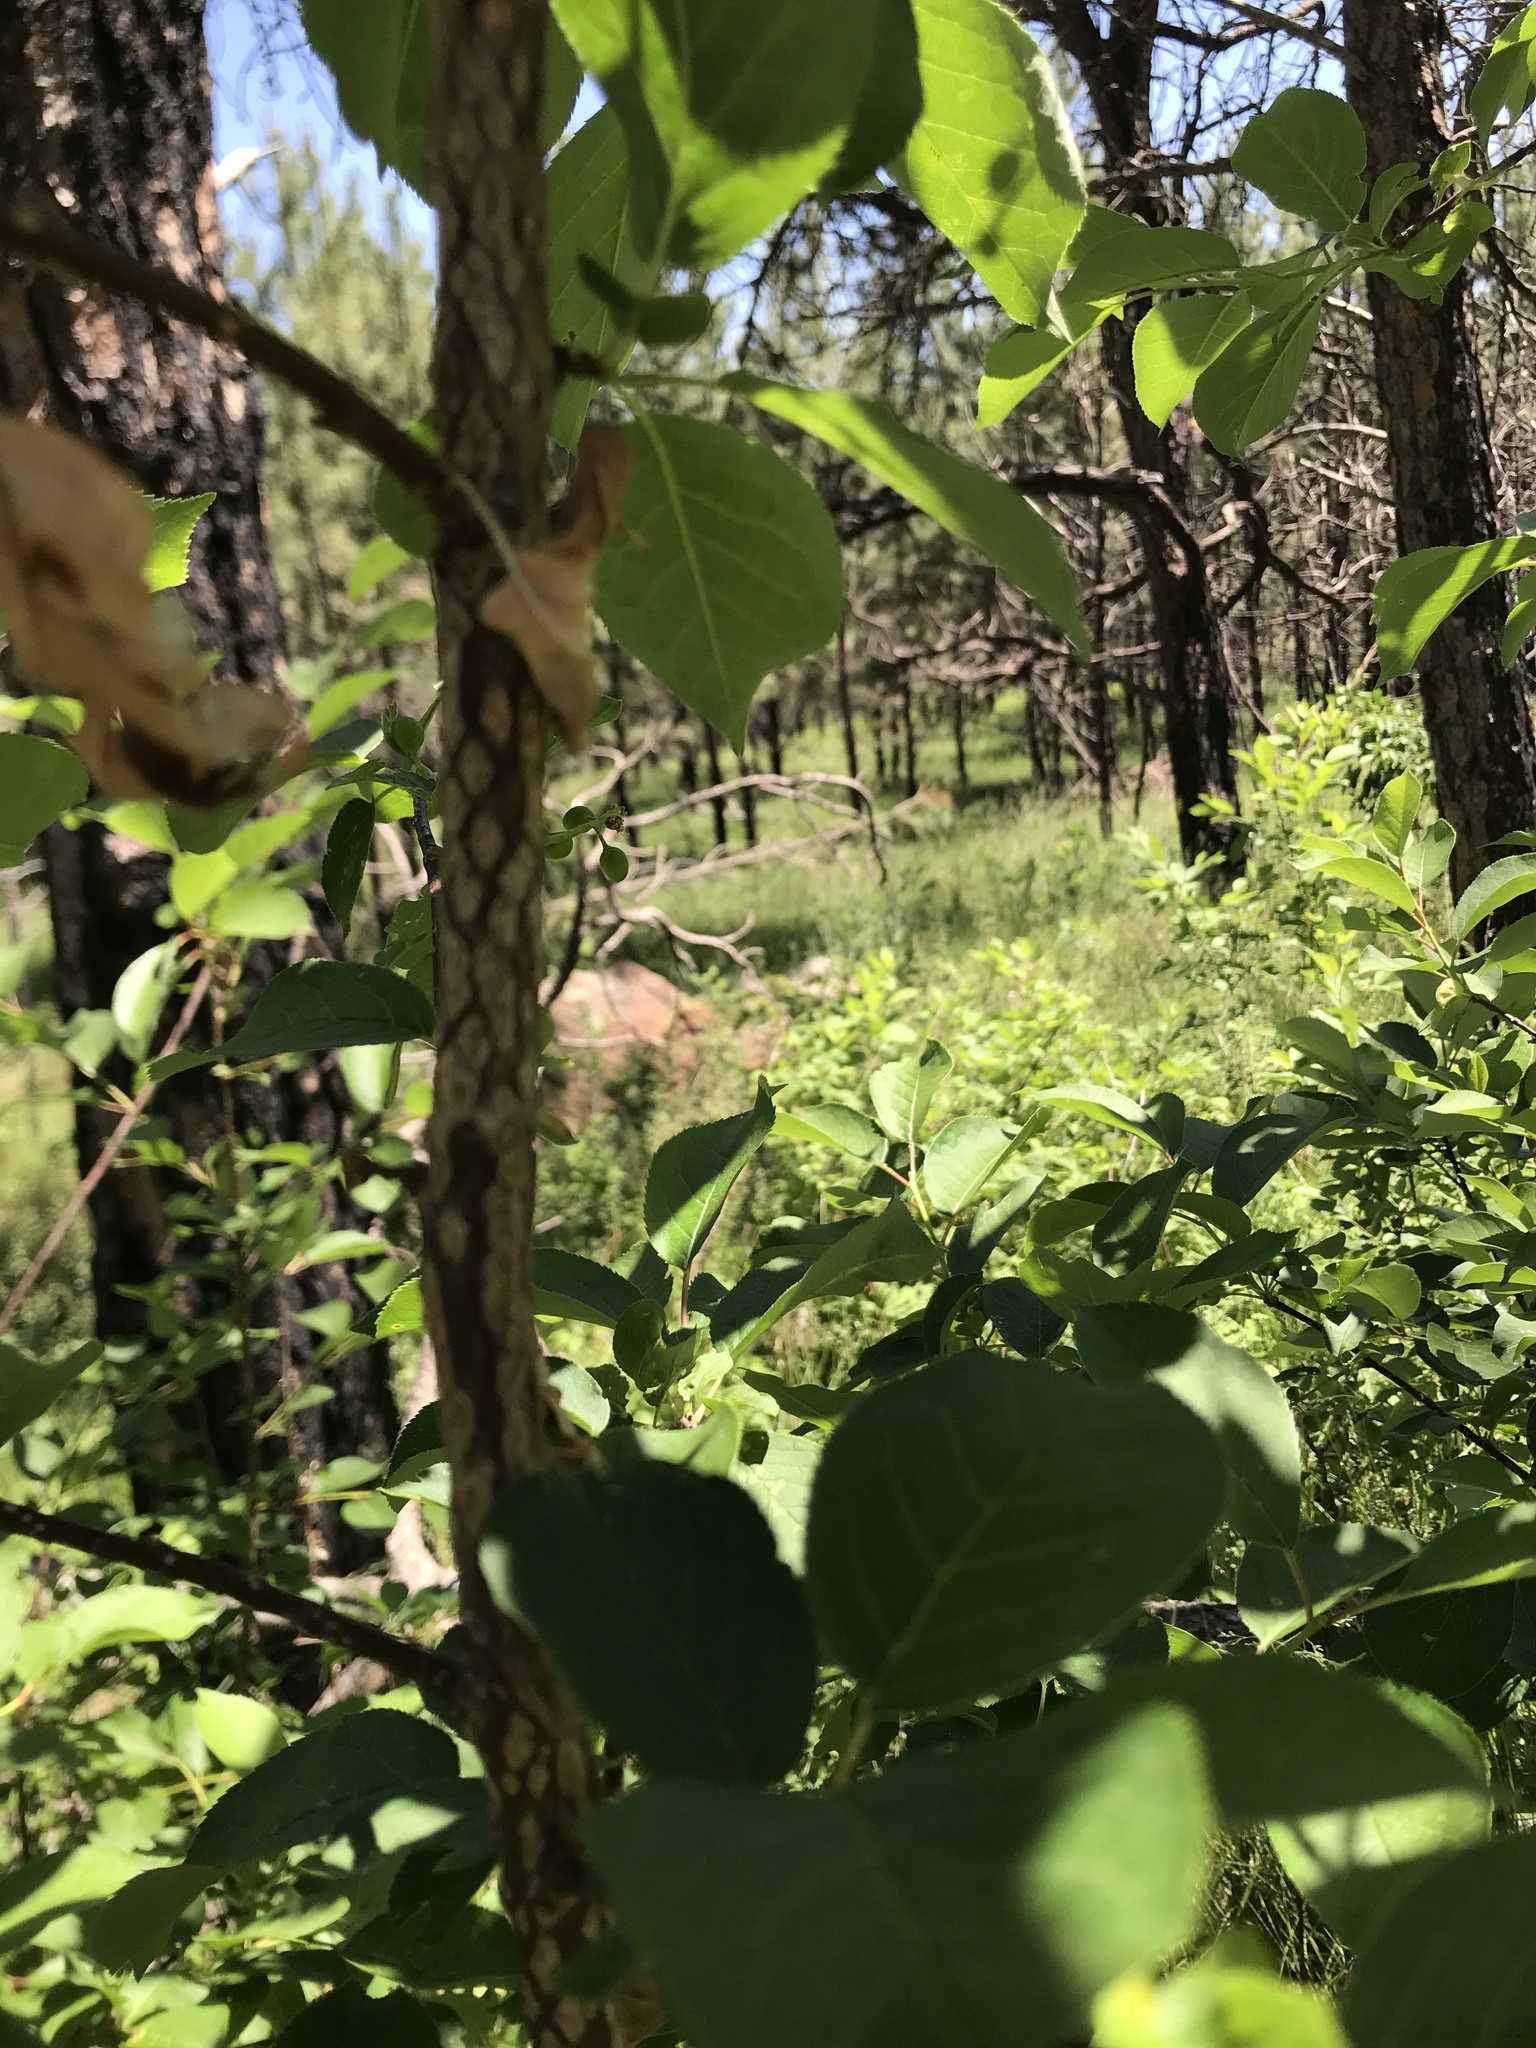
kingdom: Plantae
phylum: Tracheophyta
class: Magnoliopsida
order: Rosales
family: Rosaceae
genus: Prunus
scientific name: Prunus virginiana
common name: Chokecherry
